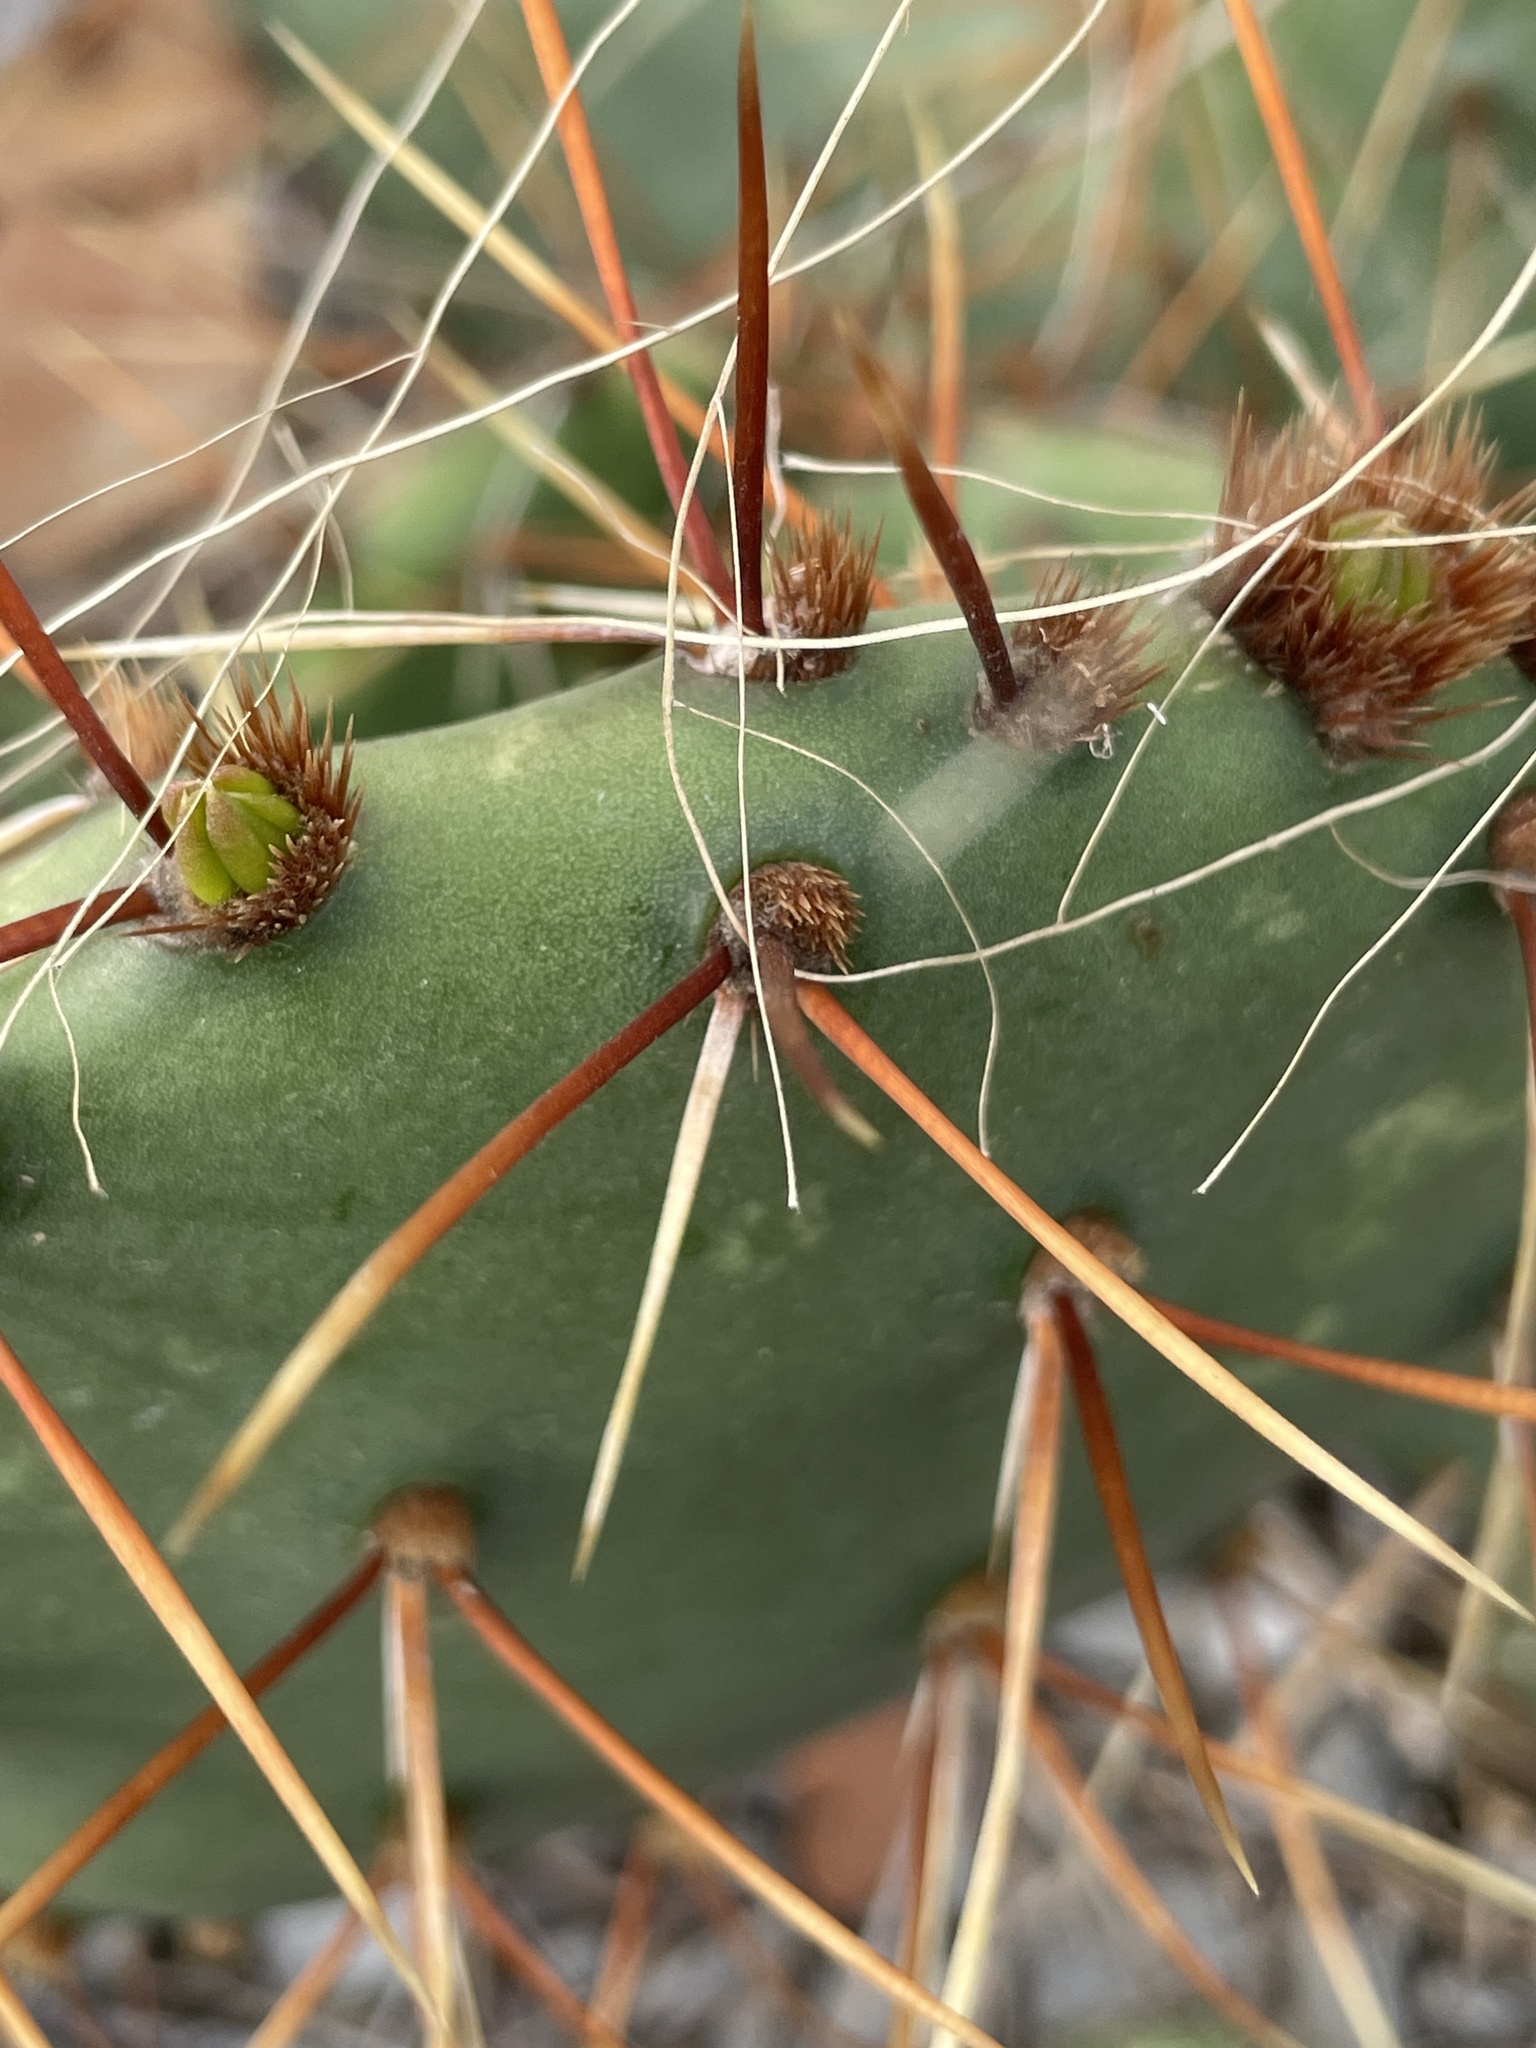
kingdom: Plantae
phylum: Tracheophyta
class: Magnoliopsida
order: Caryophyllales
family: Cactaceae
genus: Opuntia
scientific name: Opuntia macrorhiza
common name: Grassland pricklypear
